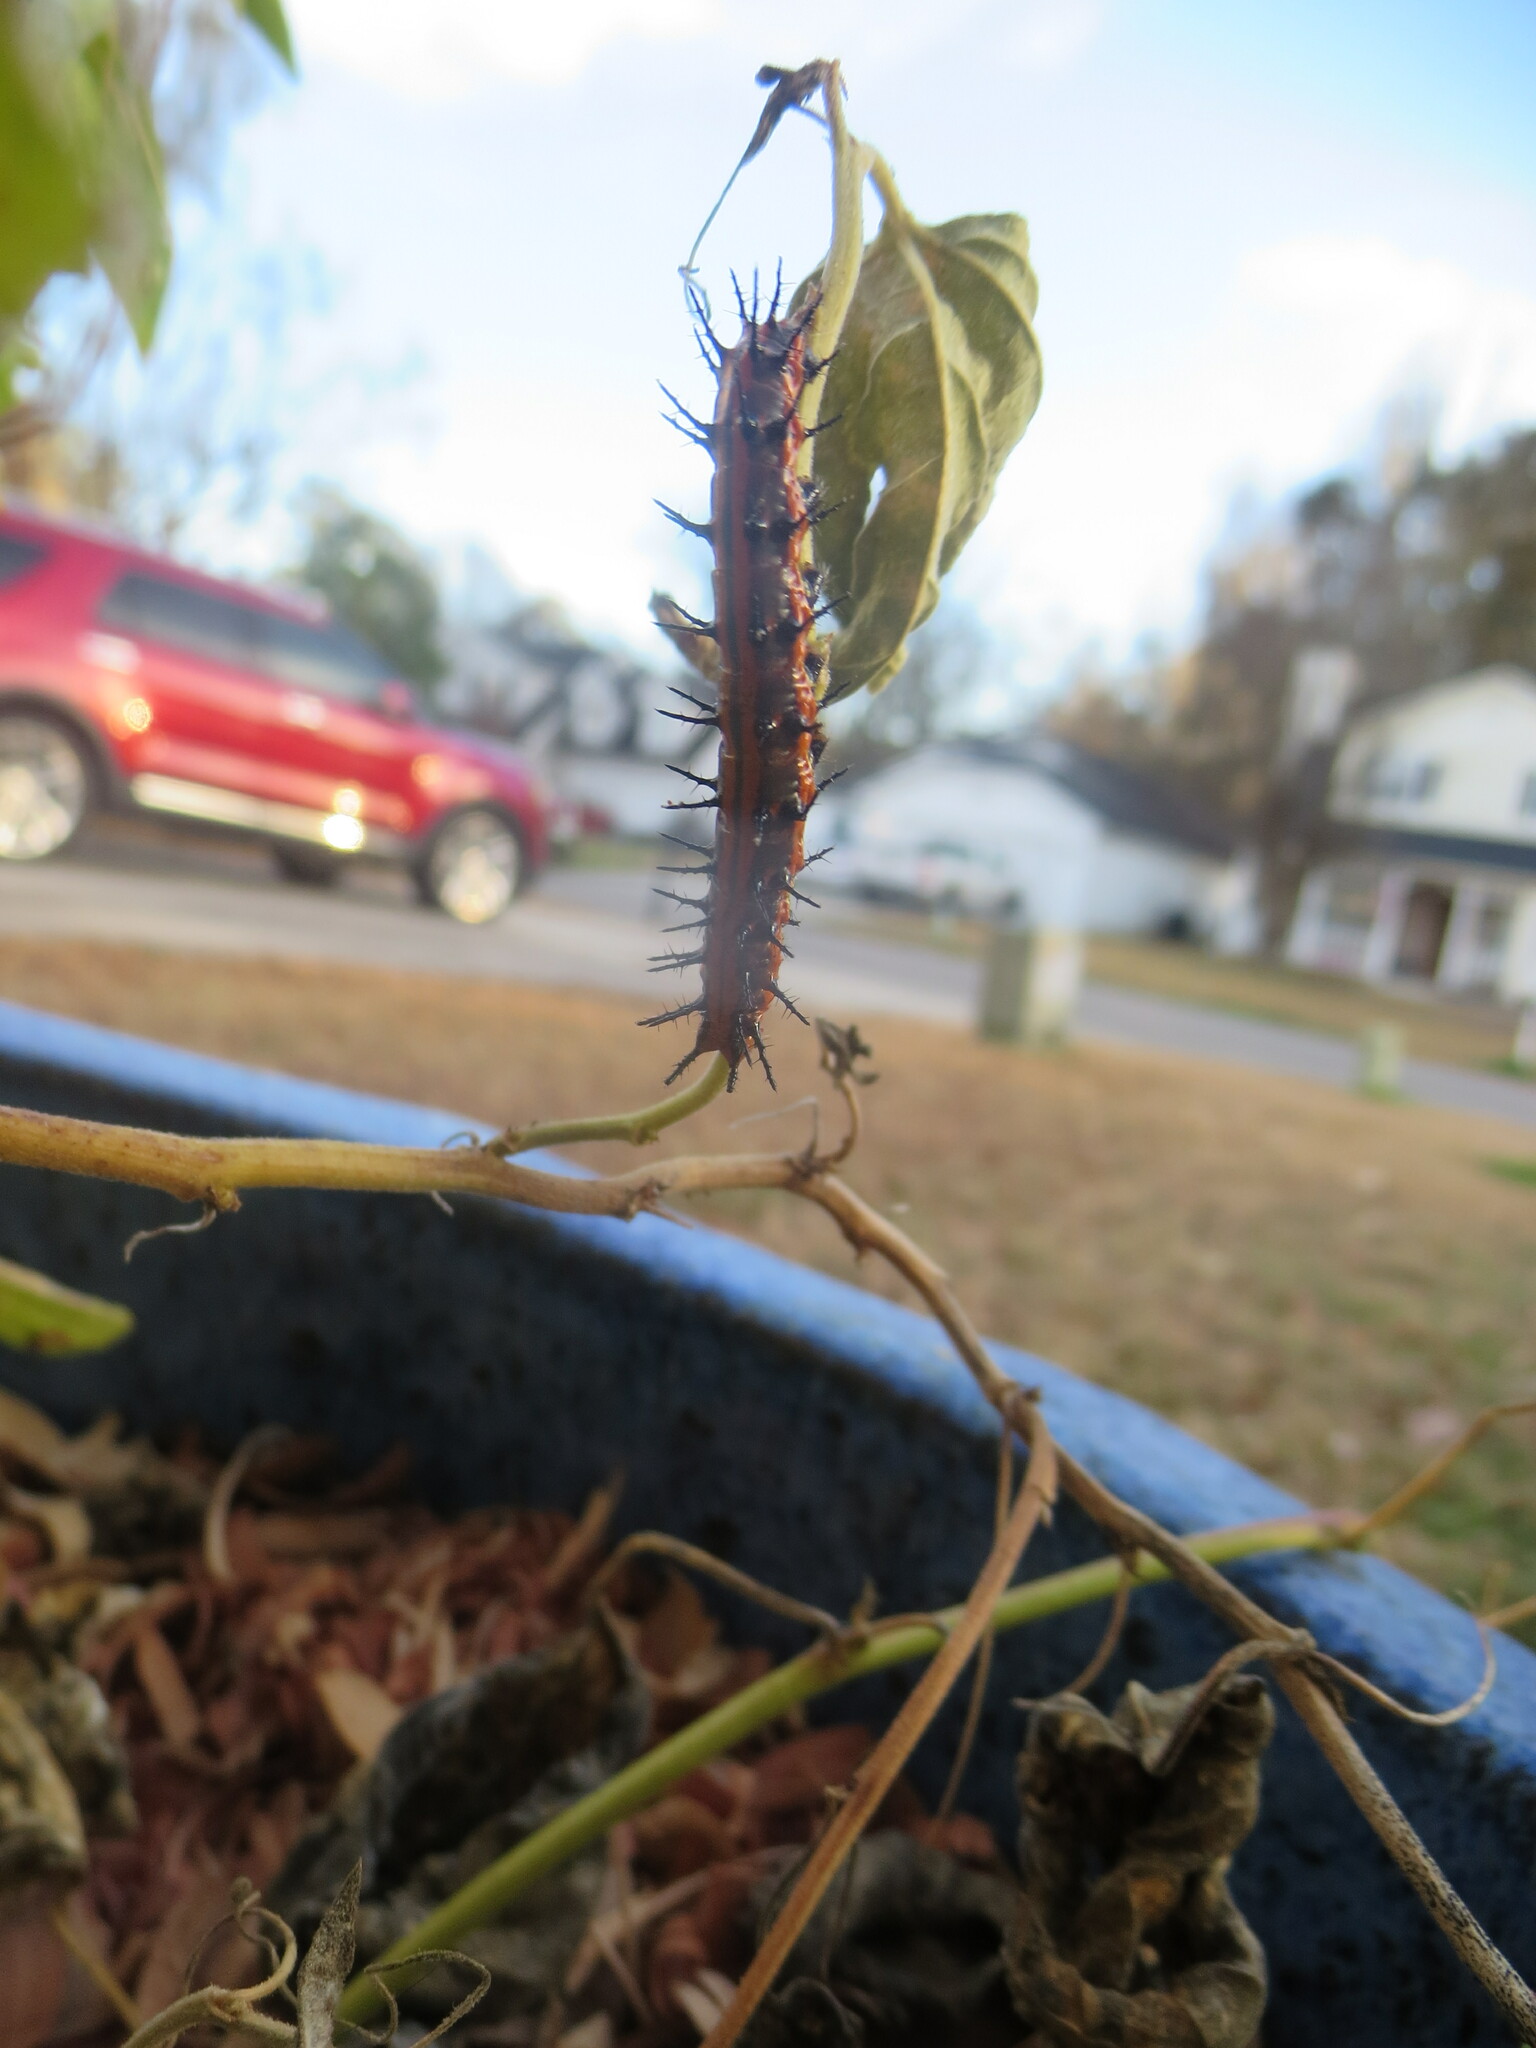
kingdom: Animalia
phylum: Arthropoda
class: Insecta
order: Lepidoptera
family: Nymphalidae
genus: Dione
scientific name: Dione vanillae
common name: Gulf fritillary
